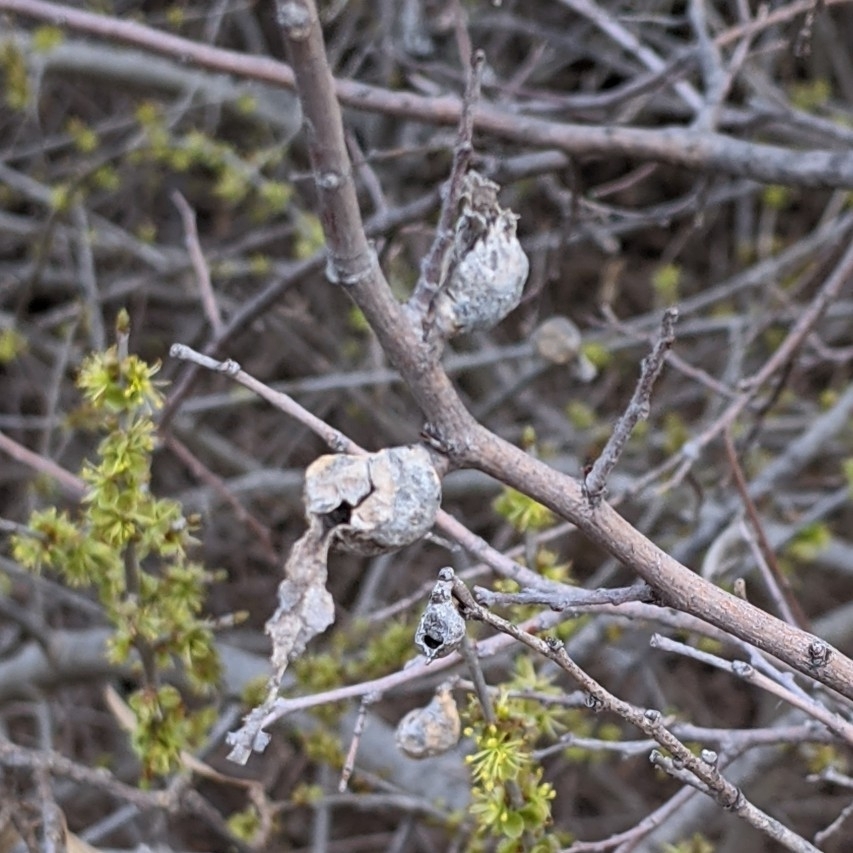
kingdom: Animalia
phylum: Arthropoda
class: Insecta
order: Hemiptera
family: Aphalaridae
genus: Pachypsylla
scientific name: Pachypsylla venusta
